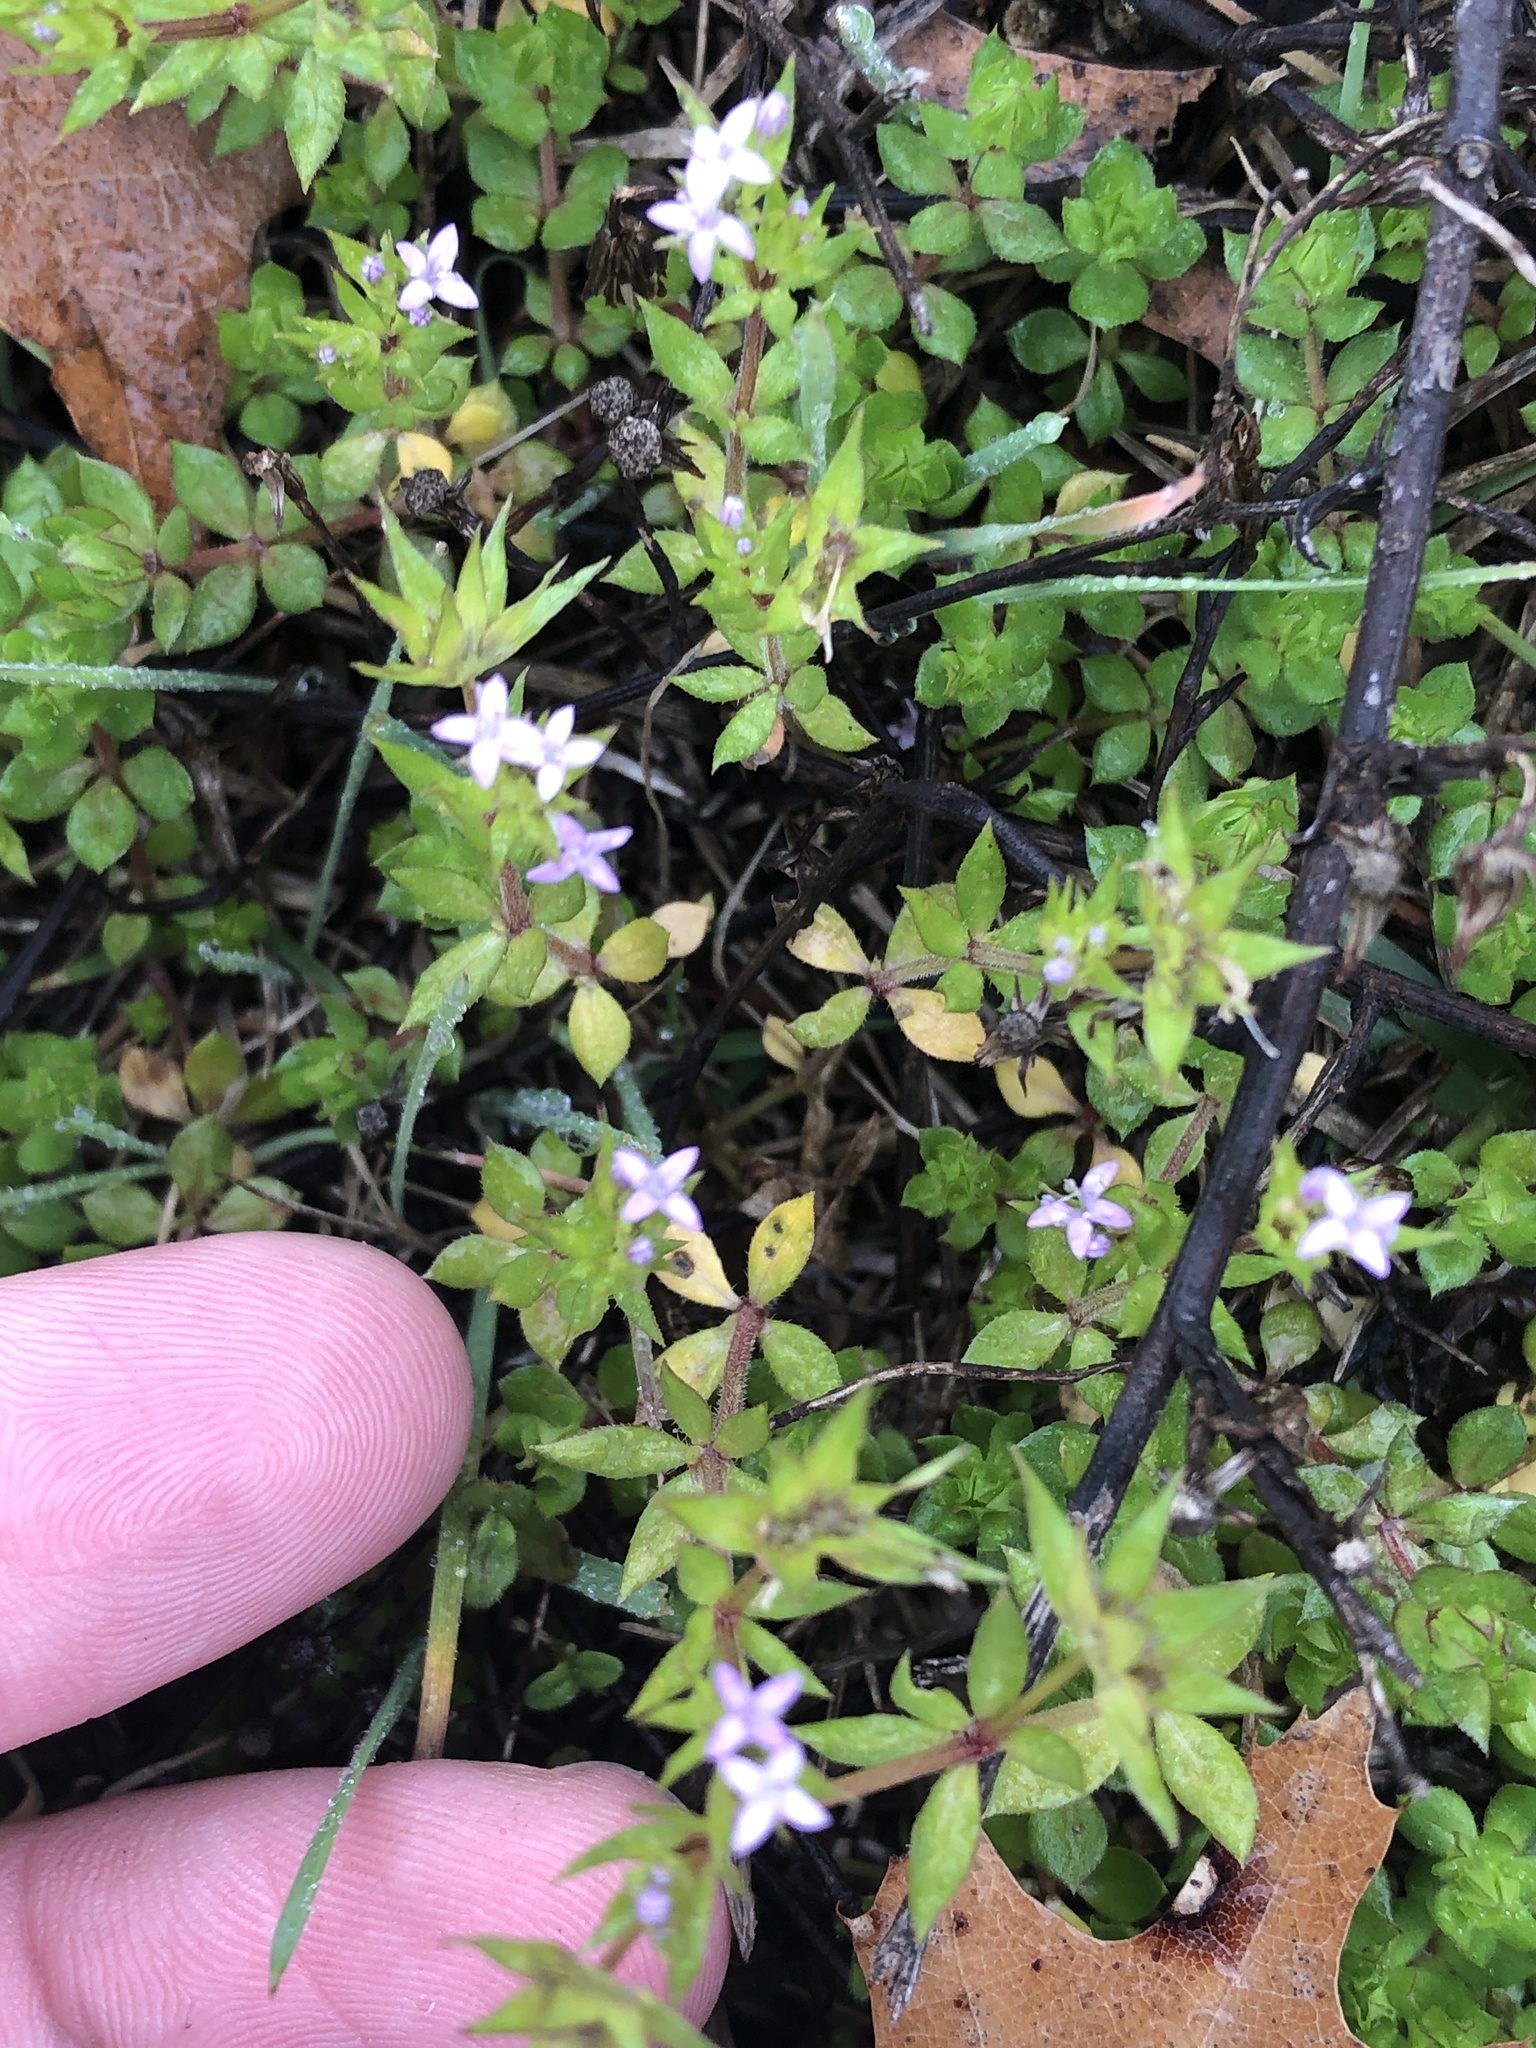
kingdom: Plantae
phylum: Tracheophyta
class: Magnoliopsida
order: Gentianales
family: Rubiaceae
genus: Sherardia
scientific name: Sherardia arvensis
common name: Field madder
